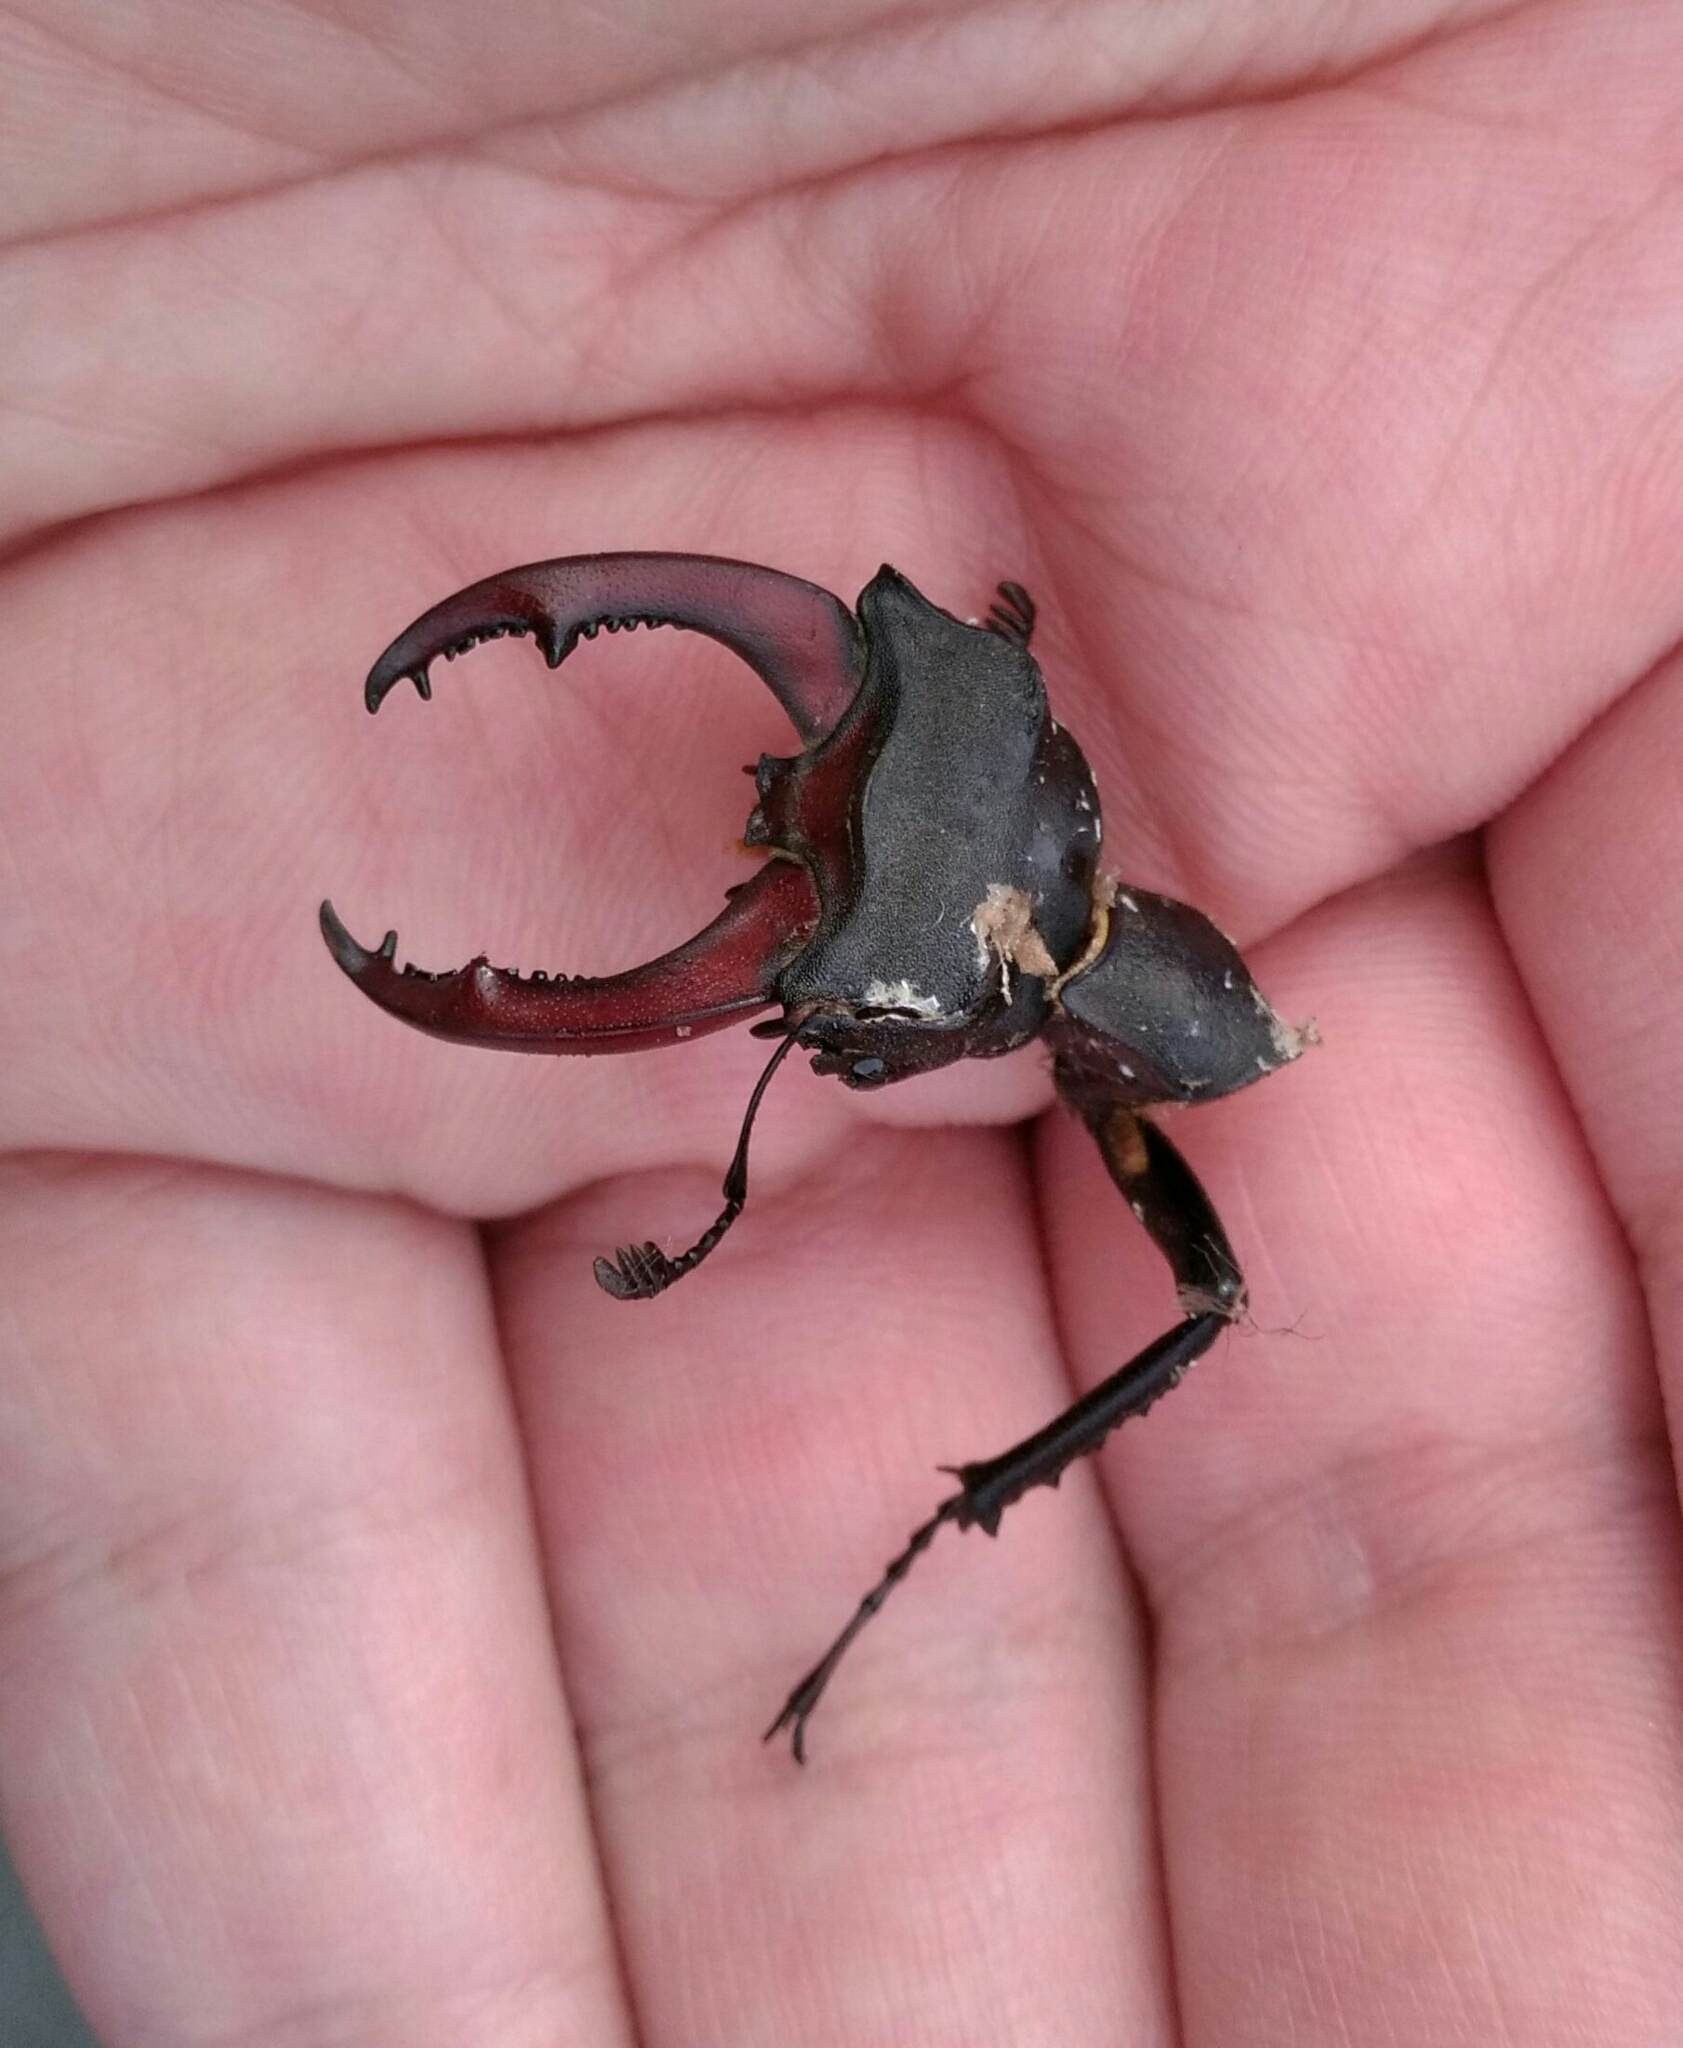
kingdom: Animalia
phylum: Arthropoda
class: Insecta
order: Coleoptera
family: Lucanidae
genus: Lucanus
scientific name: Lucanus cervus
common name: Stag beetle
